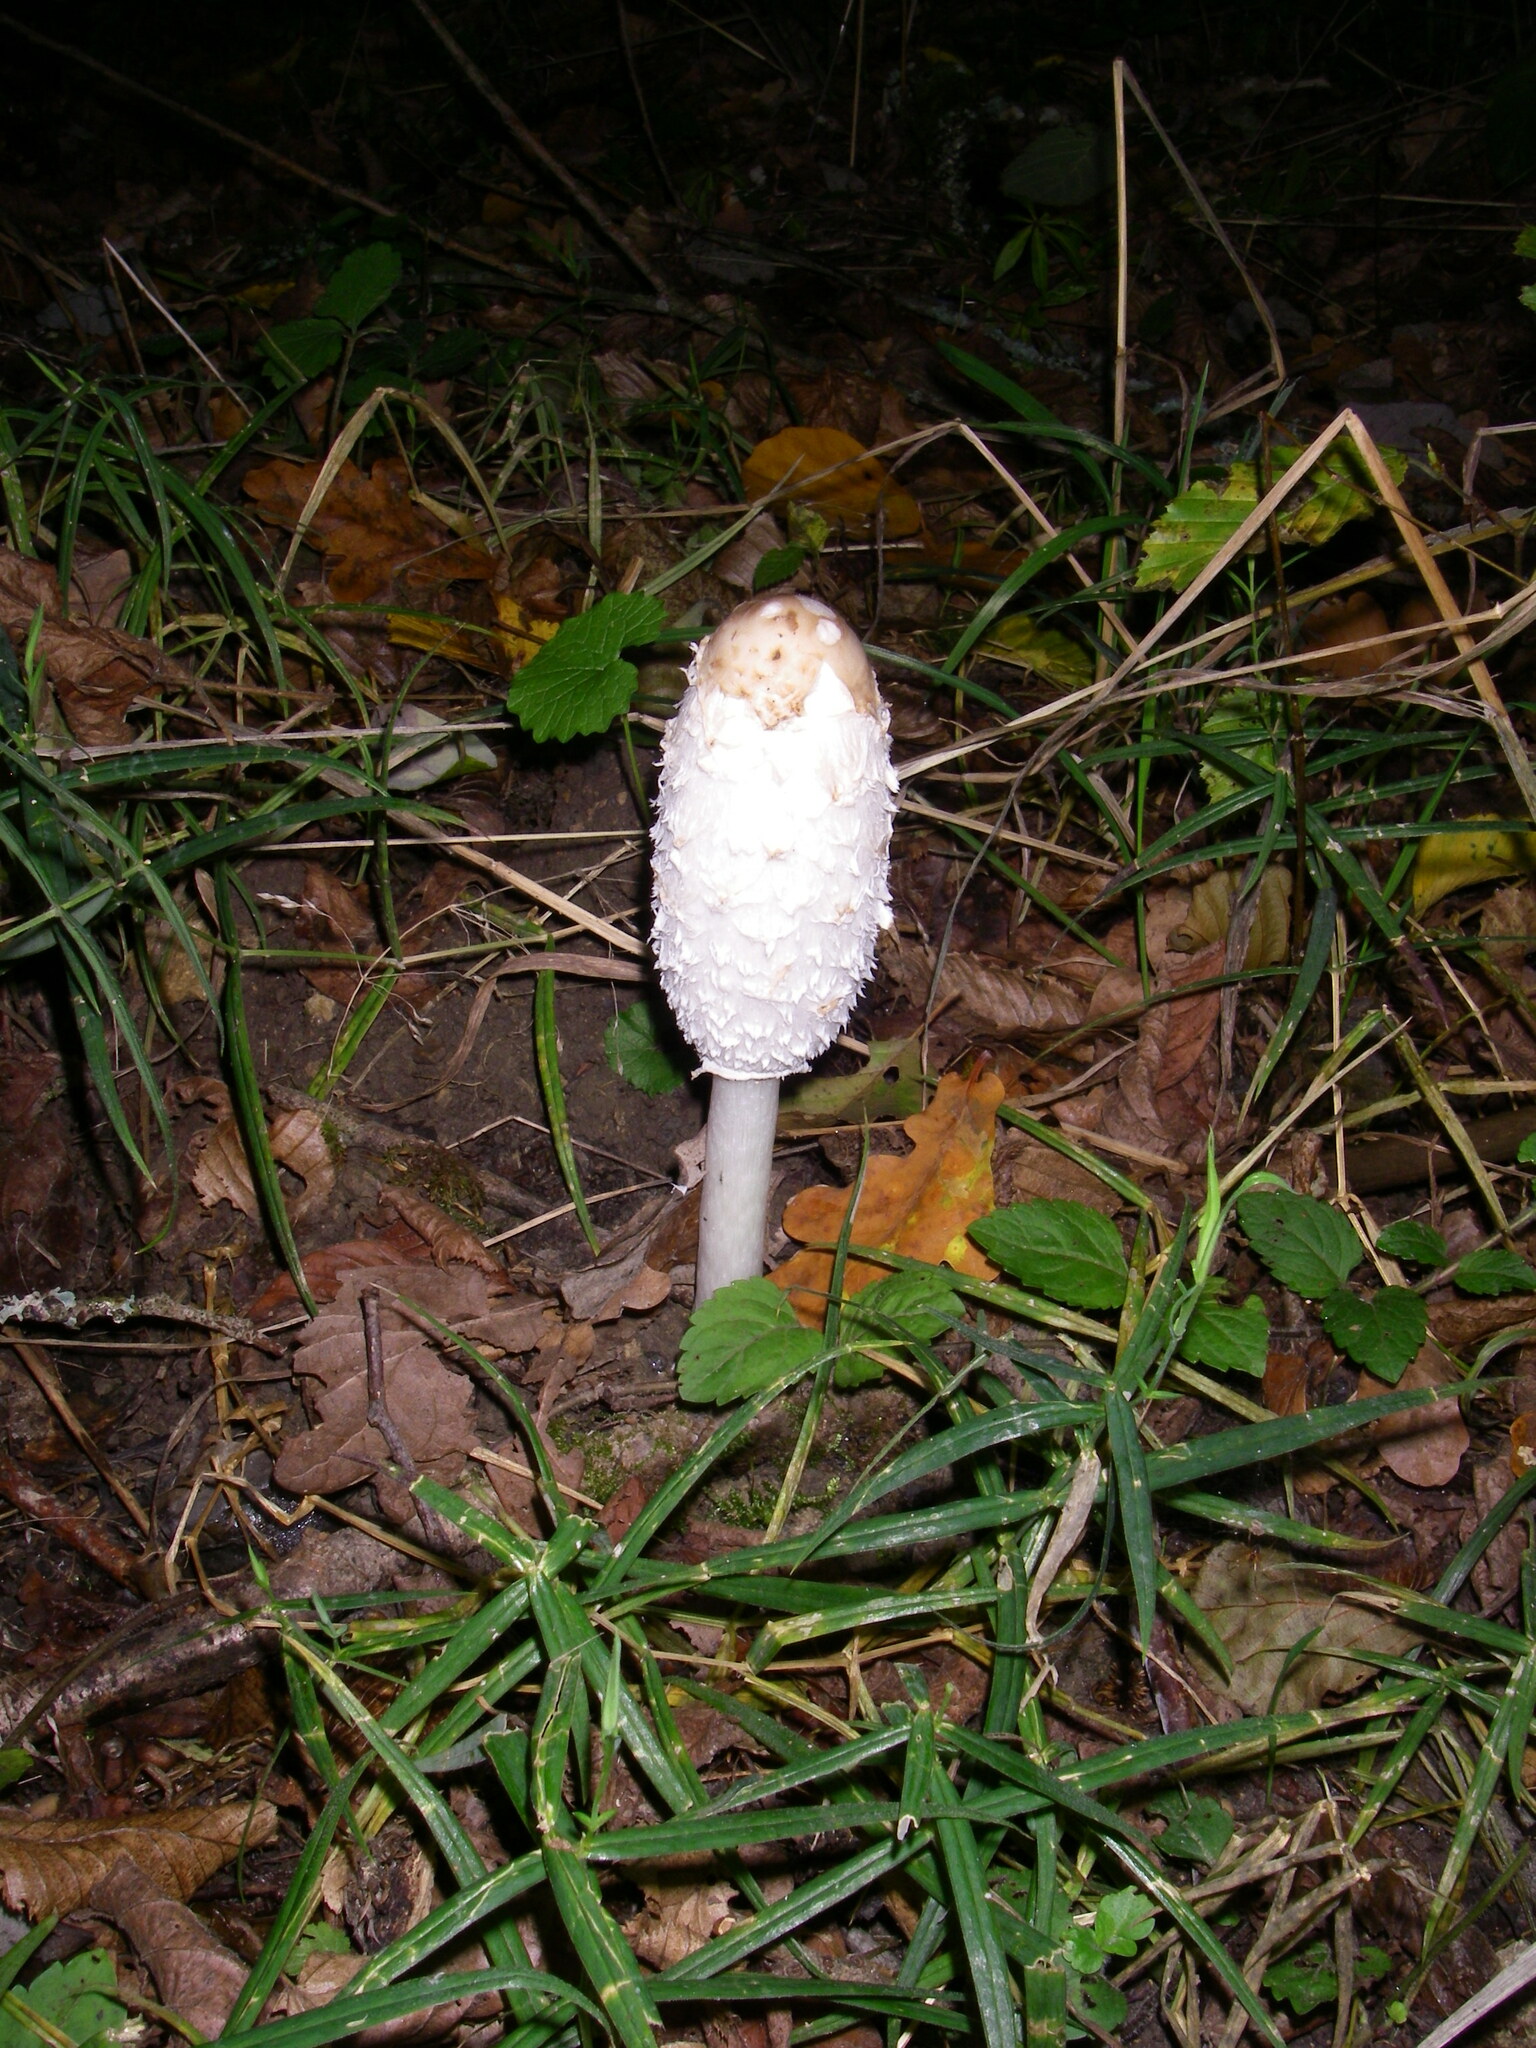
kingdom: Fungi
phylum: Basidiomycota
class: Agaricomycetes
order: Agaricales
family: Agaricaceae
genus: Coprinus
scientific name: Coprinus comatus
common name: Lawyer's wig
